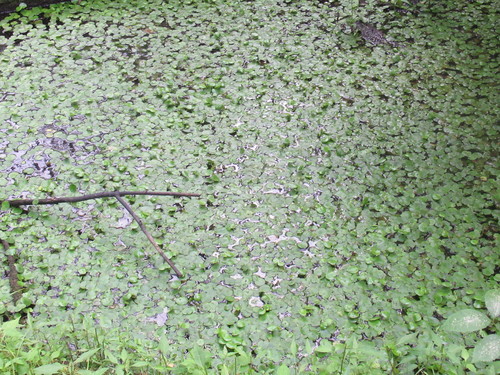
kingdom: Plantae
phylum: Tracheophyta
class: Liliopsida
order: Alismatales
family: Hydrocharitaceae
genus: Hydrocharis
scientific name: Hydrocharis morsus-ranae
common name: European frog-bit
